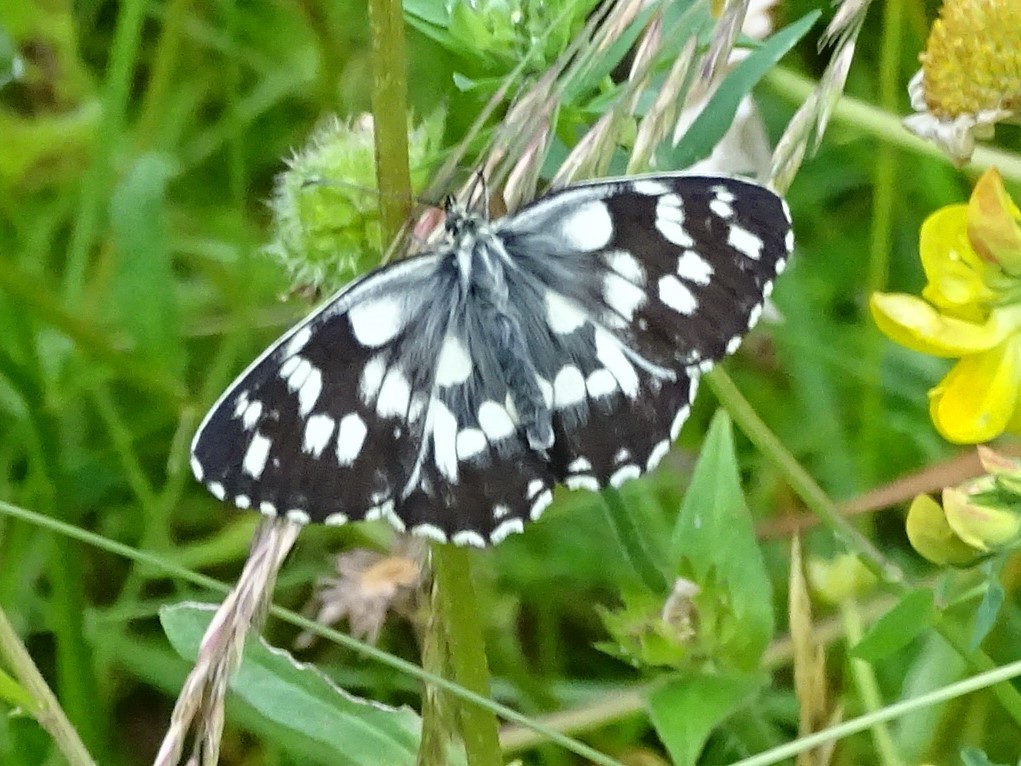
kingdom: Animalia
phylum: Arthropoda
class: Insecta
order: Lepidoptera
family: Nymphalidae
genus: Melanargia
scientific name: Melanargia galathea
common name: Marbled white
